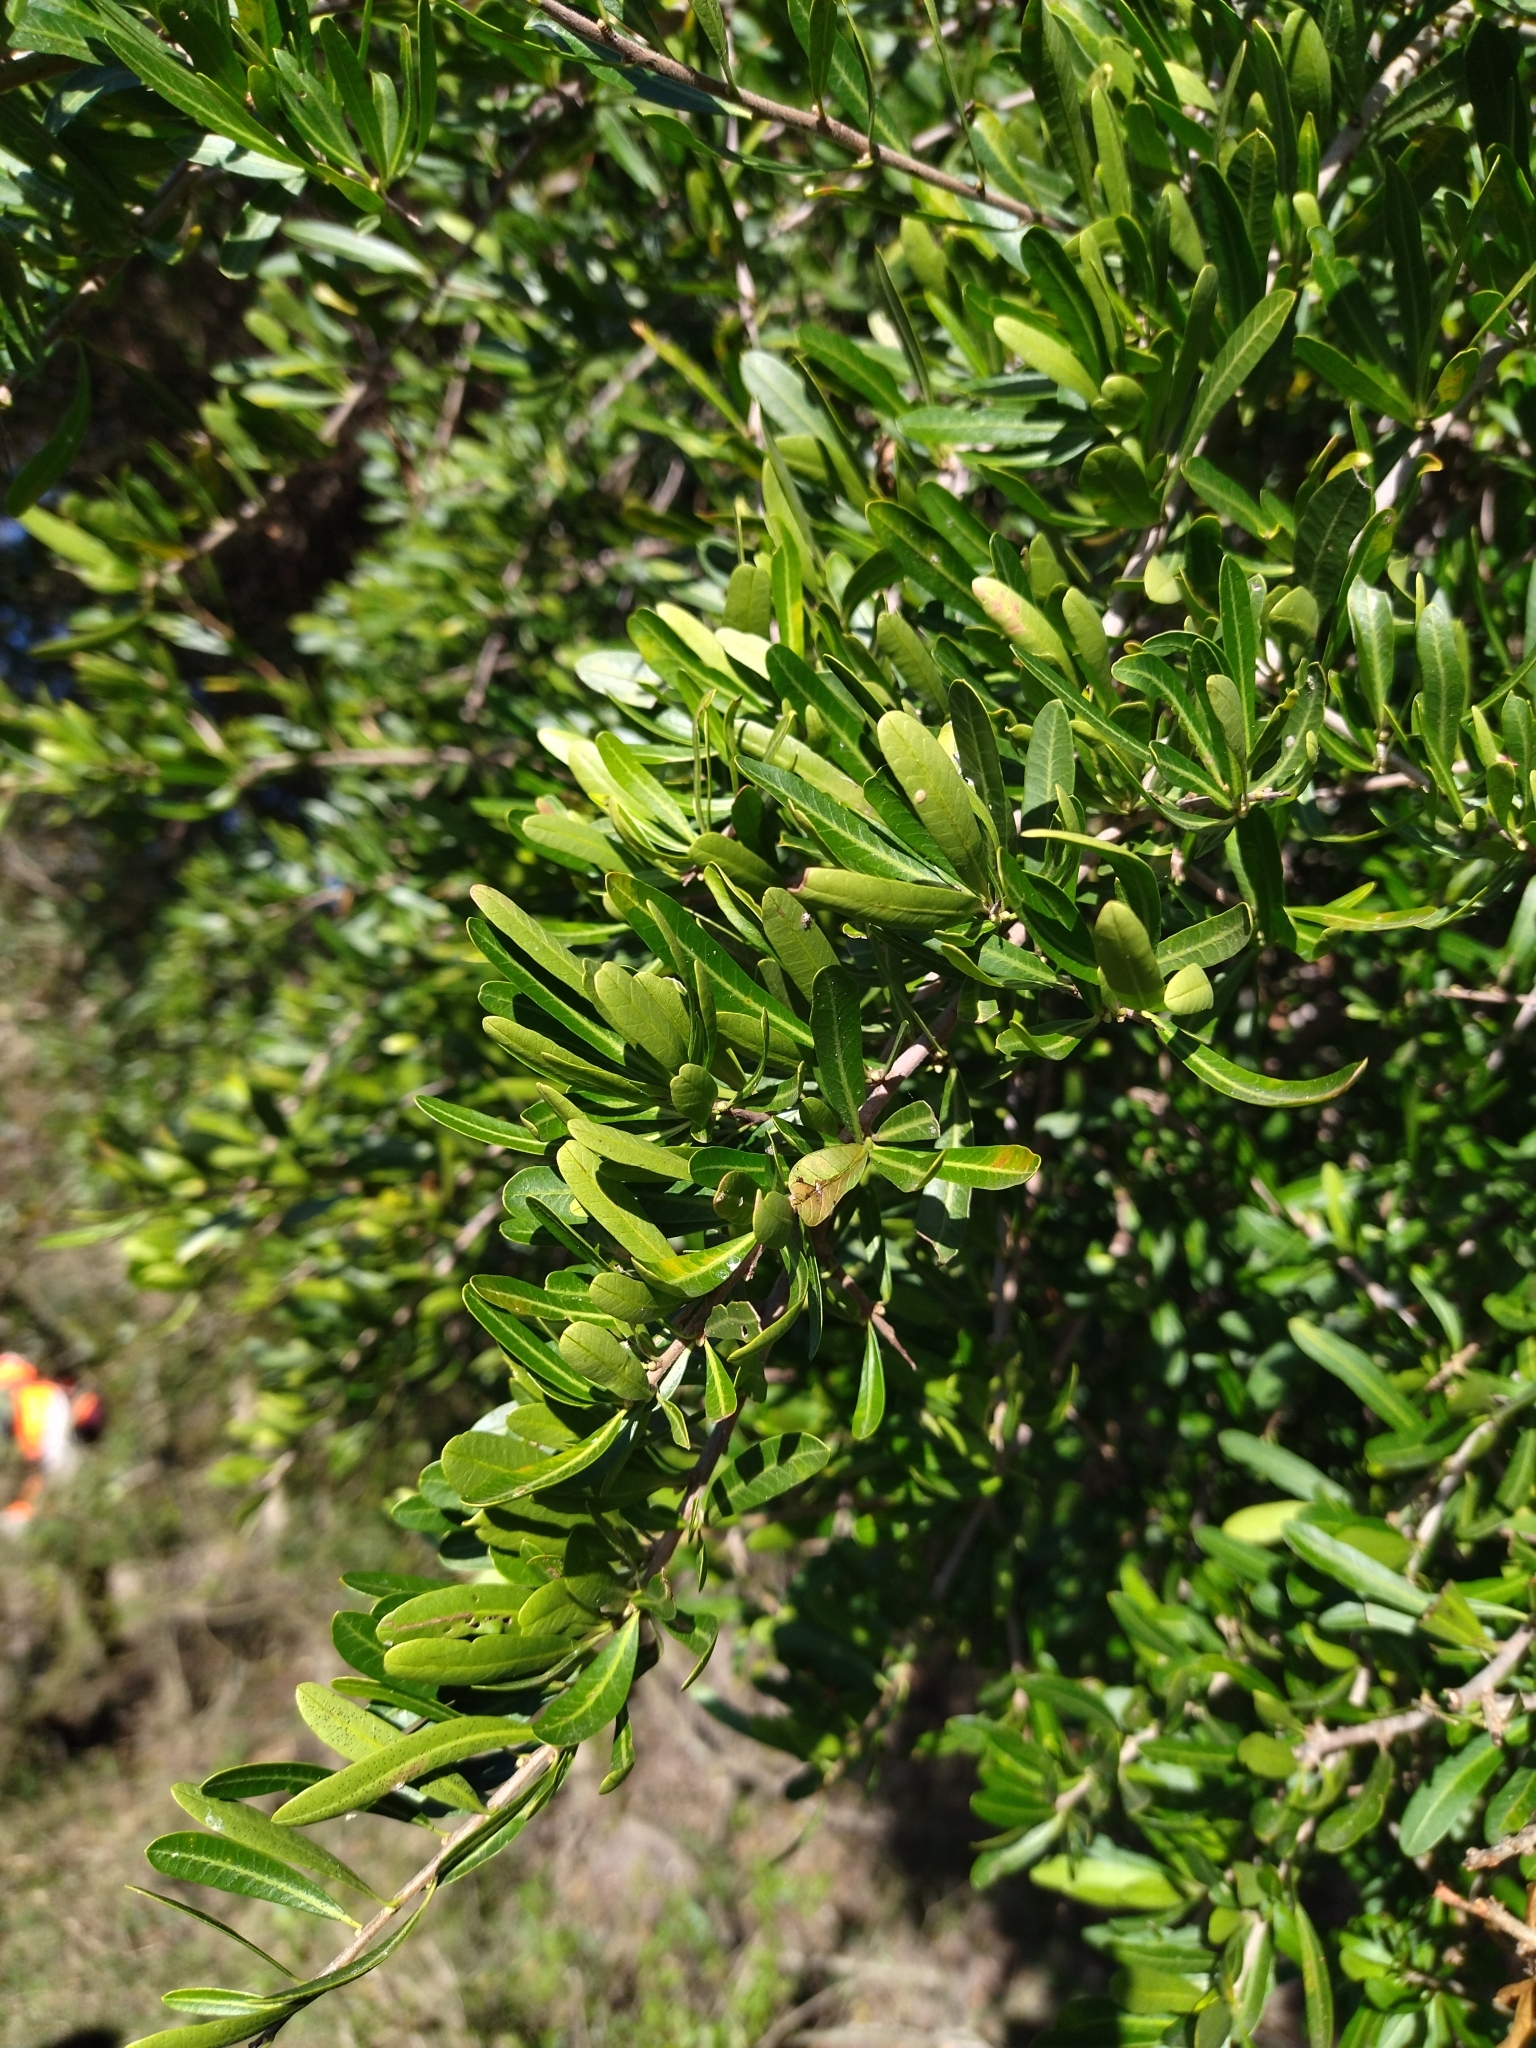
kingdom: Plantae
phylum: Tracheophyta
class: Magnoliopsida
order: Sapindales
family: Anacardiaceae
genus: Schinus
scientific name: Schinus longifolia
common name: Longleaf peppertree
